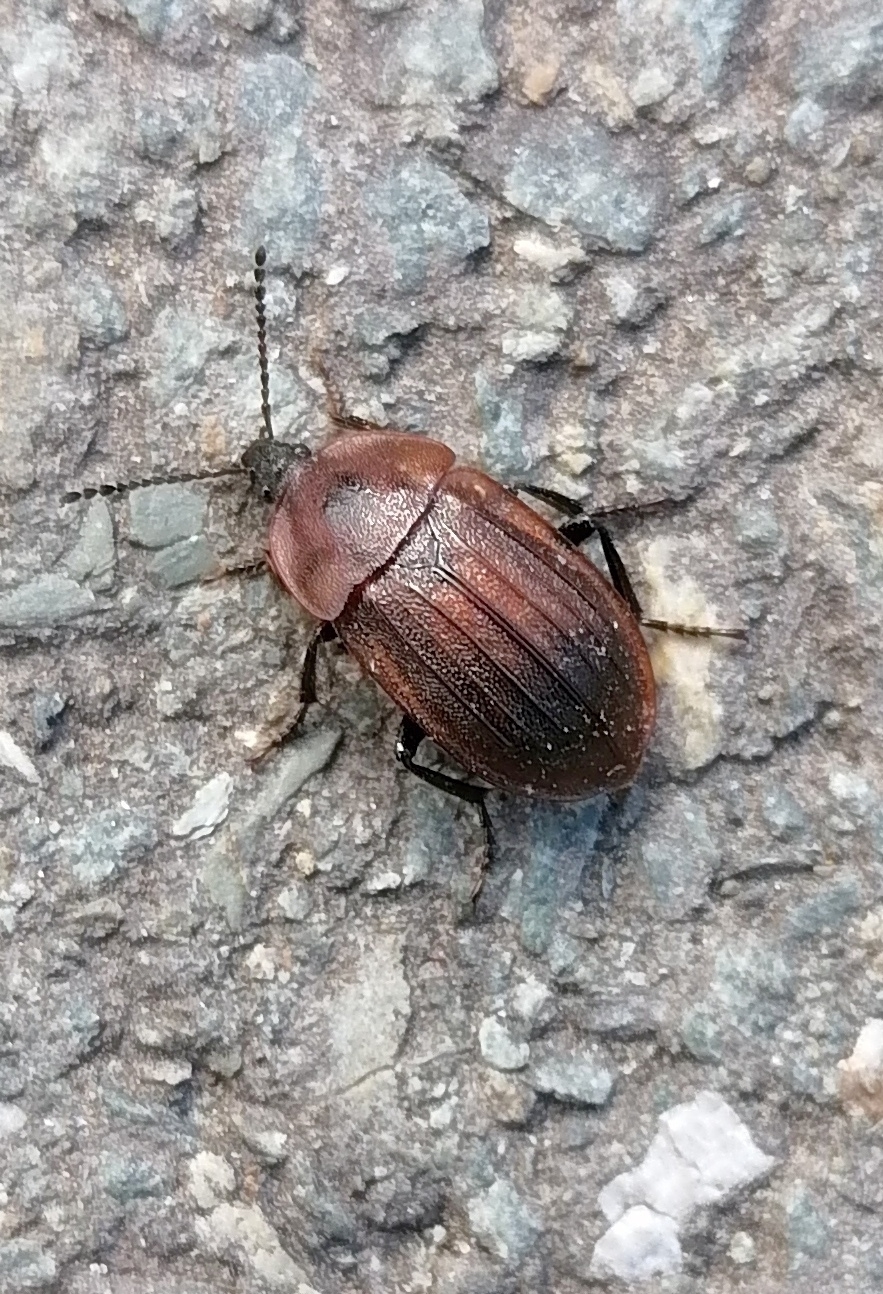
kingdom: Animalia
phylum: Arthropoda
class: Insecta
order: Coleoptera
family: Staphylinidae
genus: Silpha
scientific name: Silpha atrata
